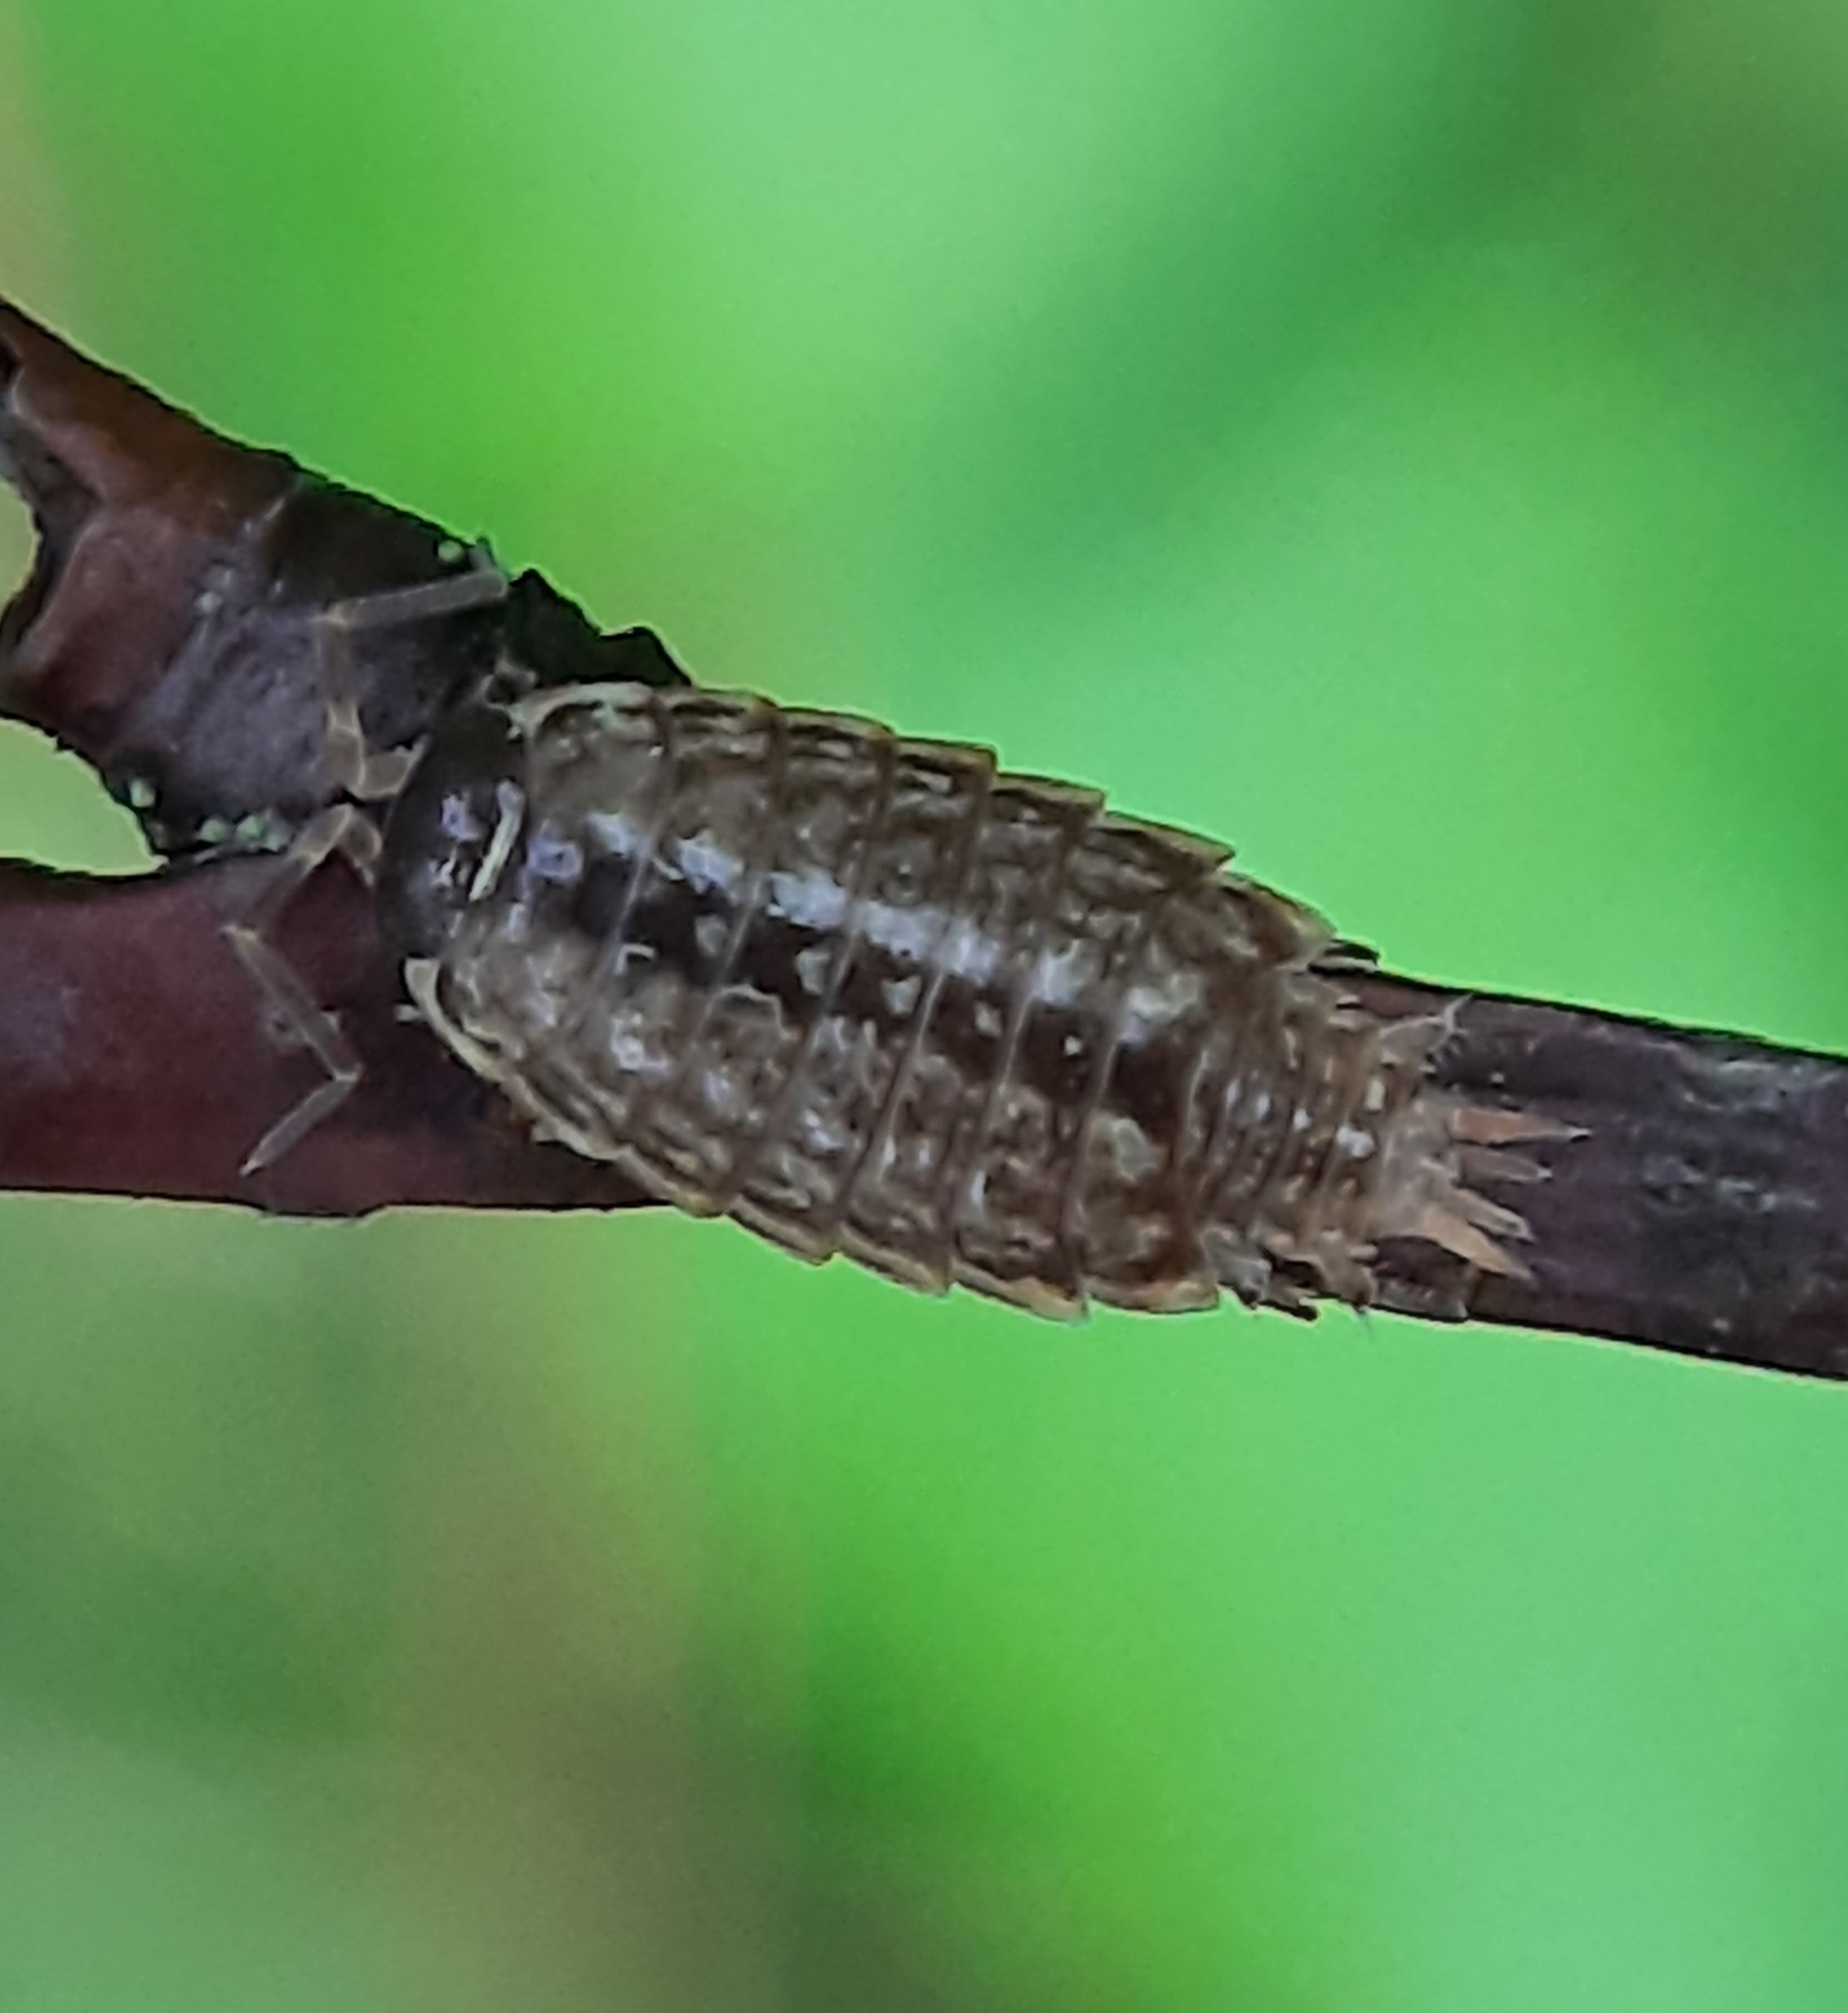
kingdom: Animalia
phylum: Arthropoda
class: Malacostraca
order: Isopoda
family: Philosciidae
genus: Philoscia
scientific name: Philoscia muscorum
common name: Common striped woodlouse
